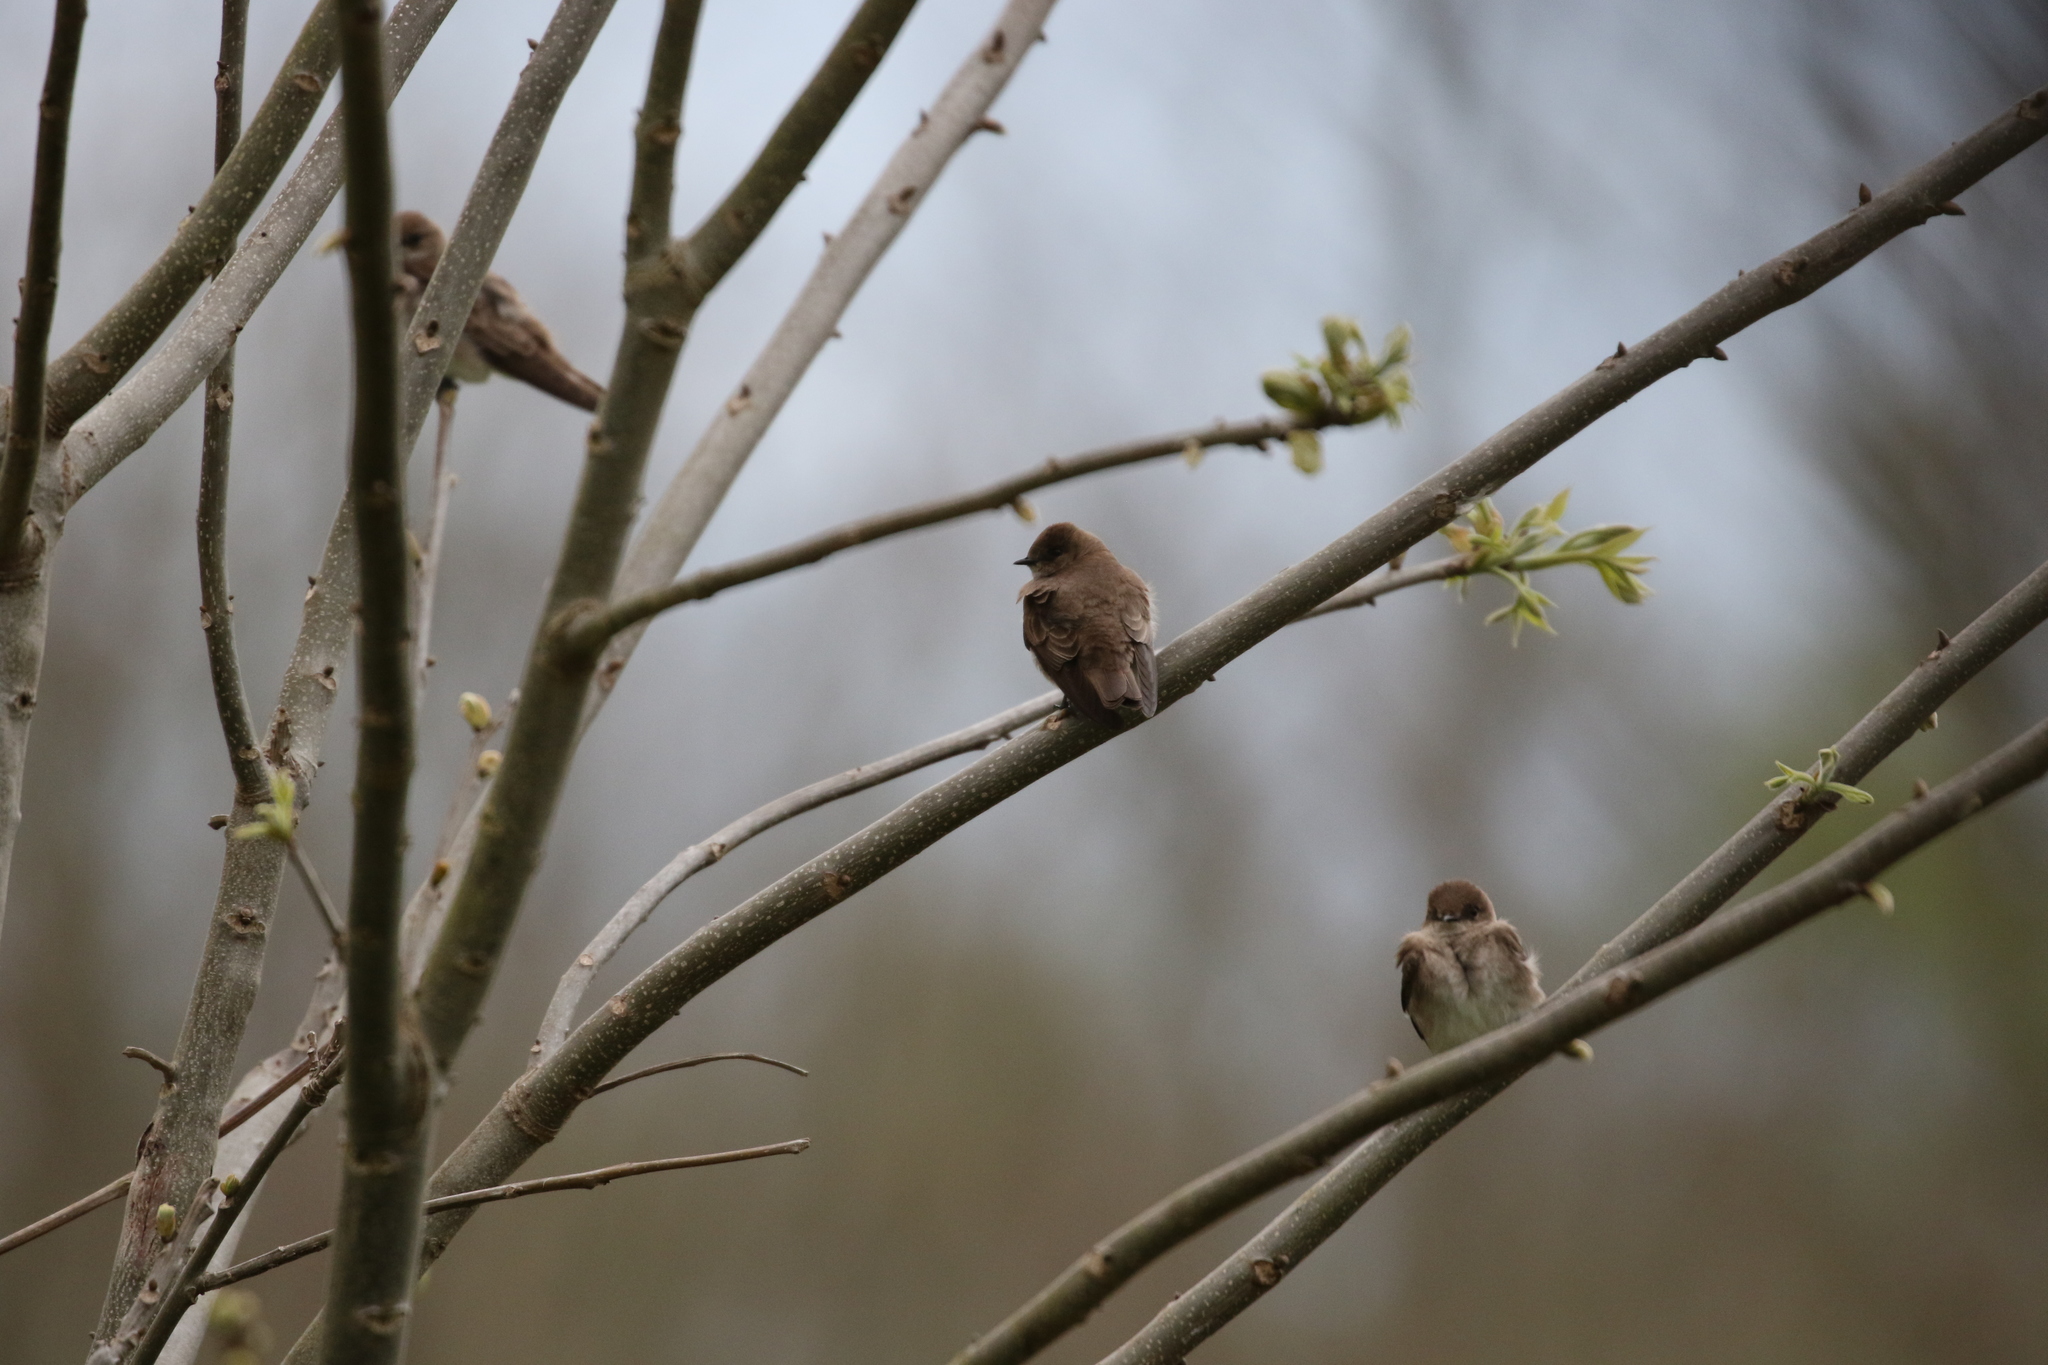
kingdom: Animalia
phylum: Chordata
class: Aves
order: Passeriformes
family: Hirundinidae
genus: Stelgidopteryx
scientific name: Stelgidopteryx serripennis
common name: Northern rough-winged swallow
